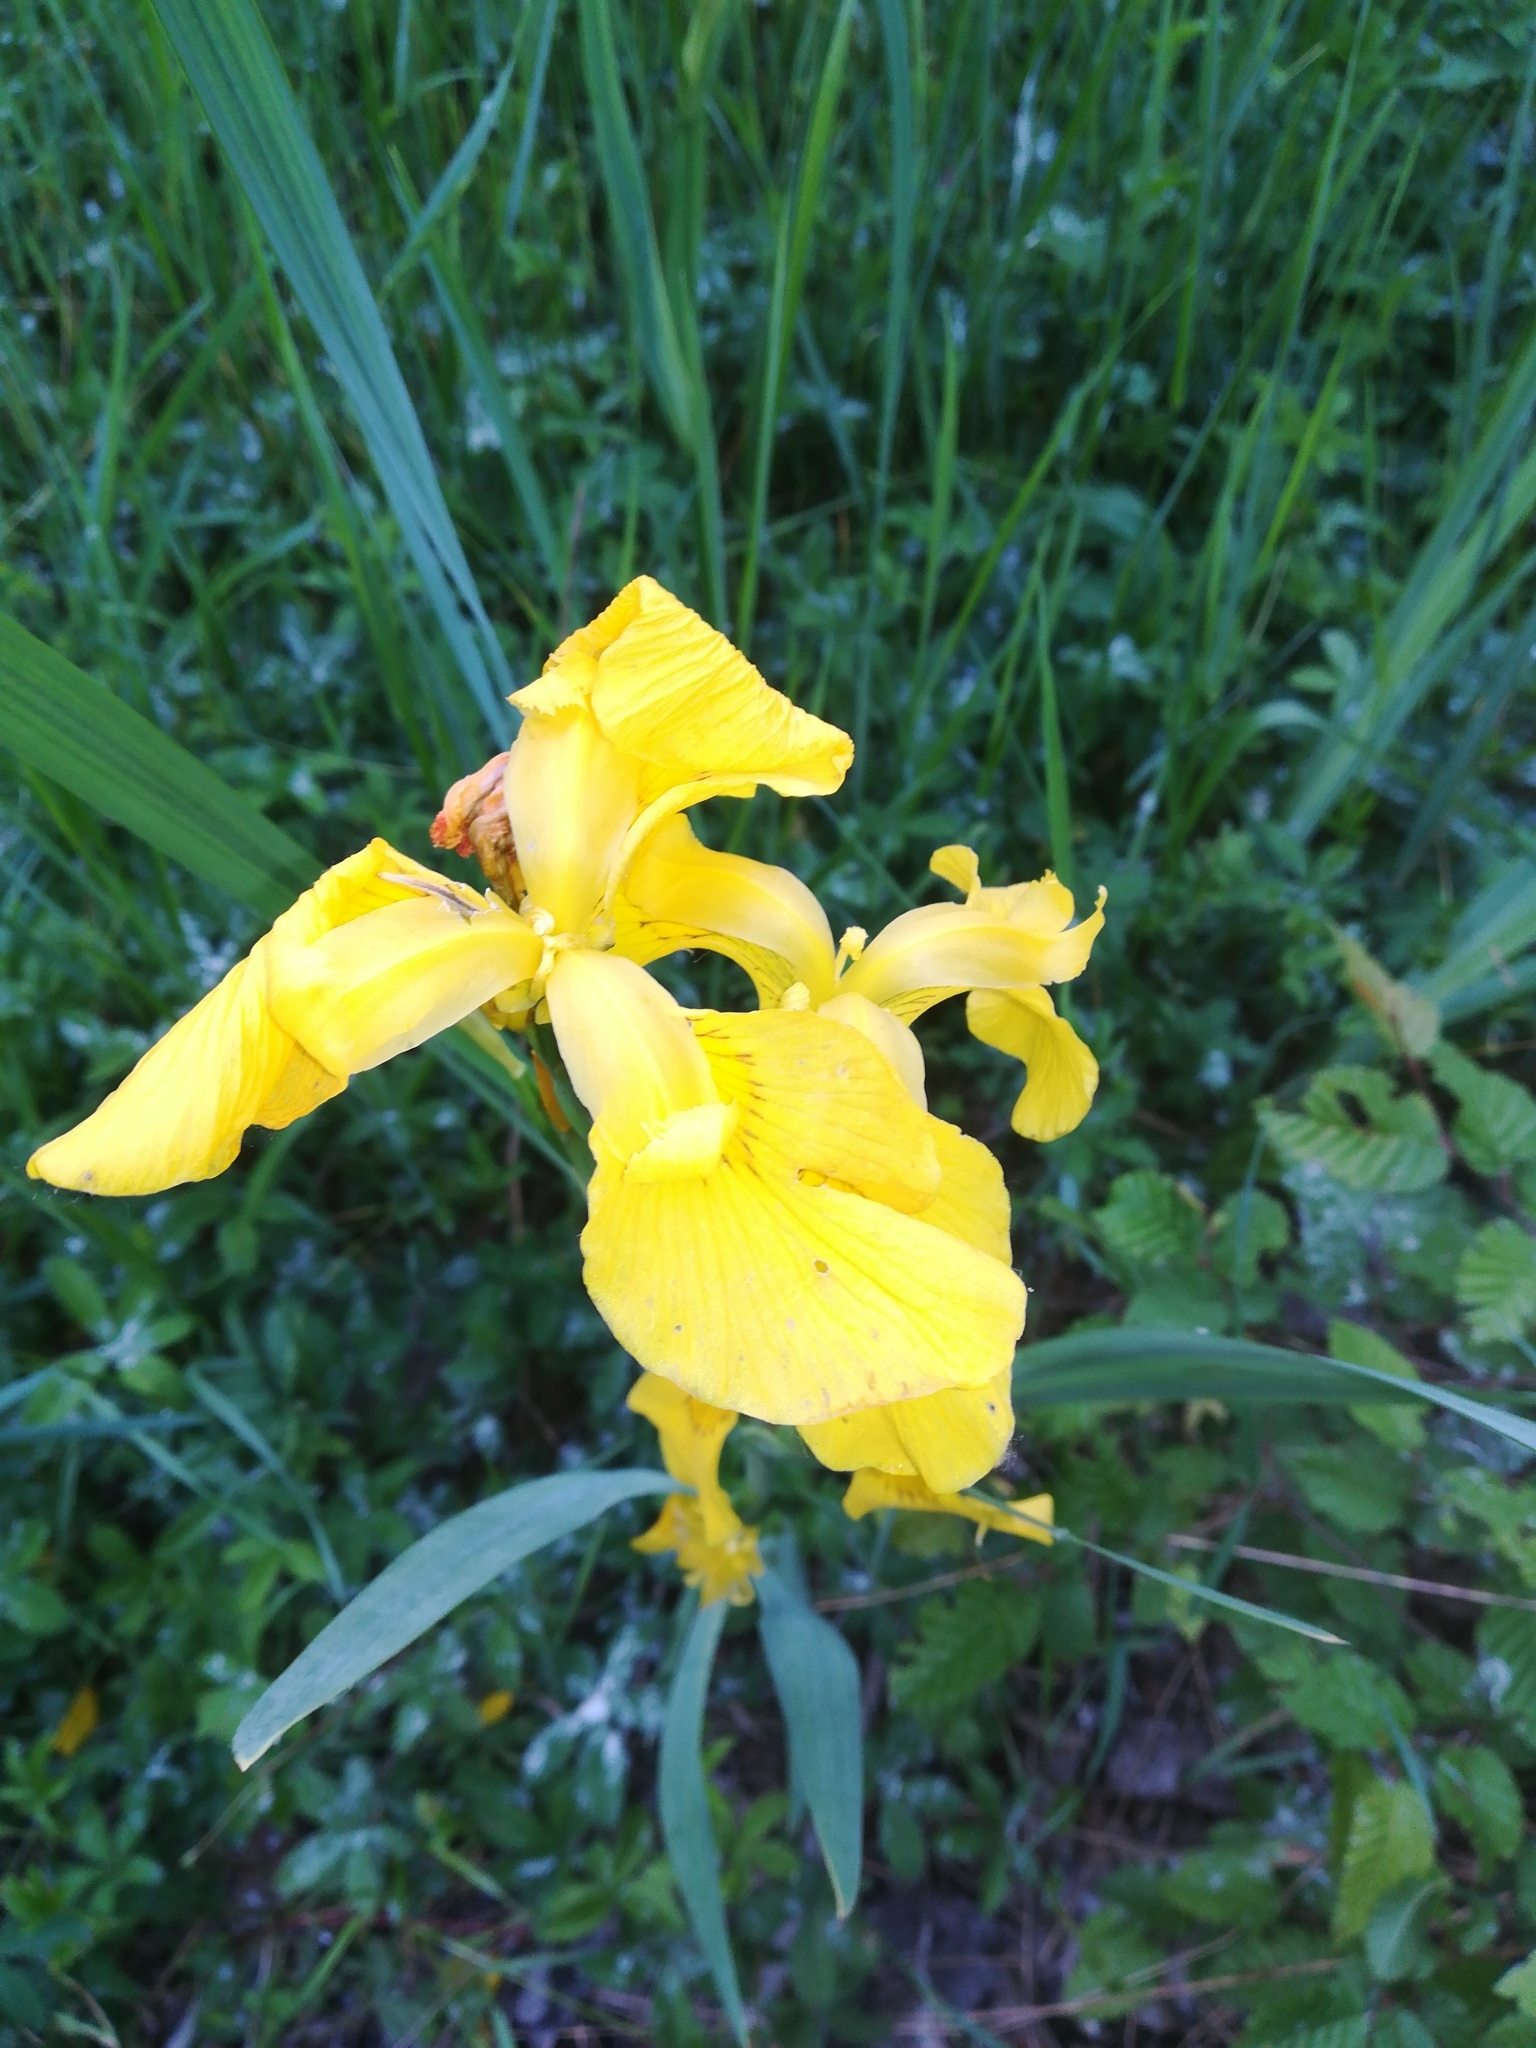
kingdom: Plantae
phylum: Tracheophyta
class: Liliopsida
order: Asparagales
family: Iridaceae
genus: Iris
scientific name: Iris pseudacorus
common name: Yellow flag
